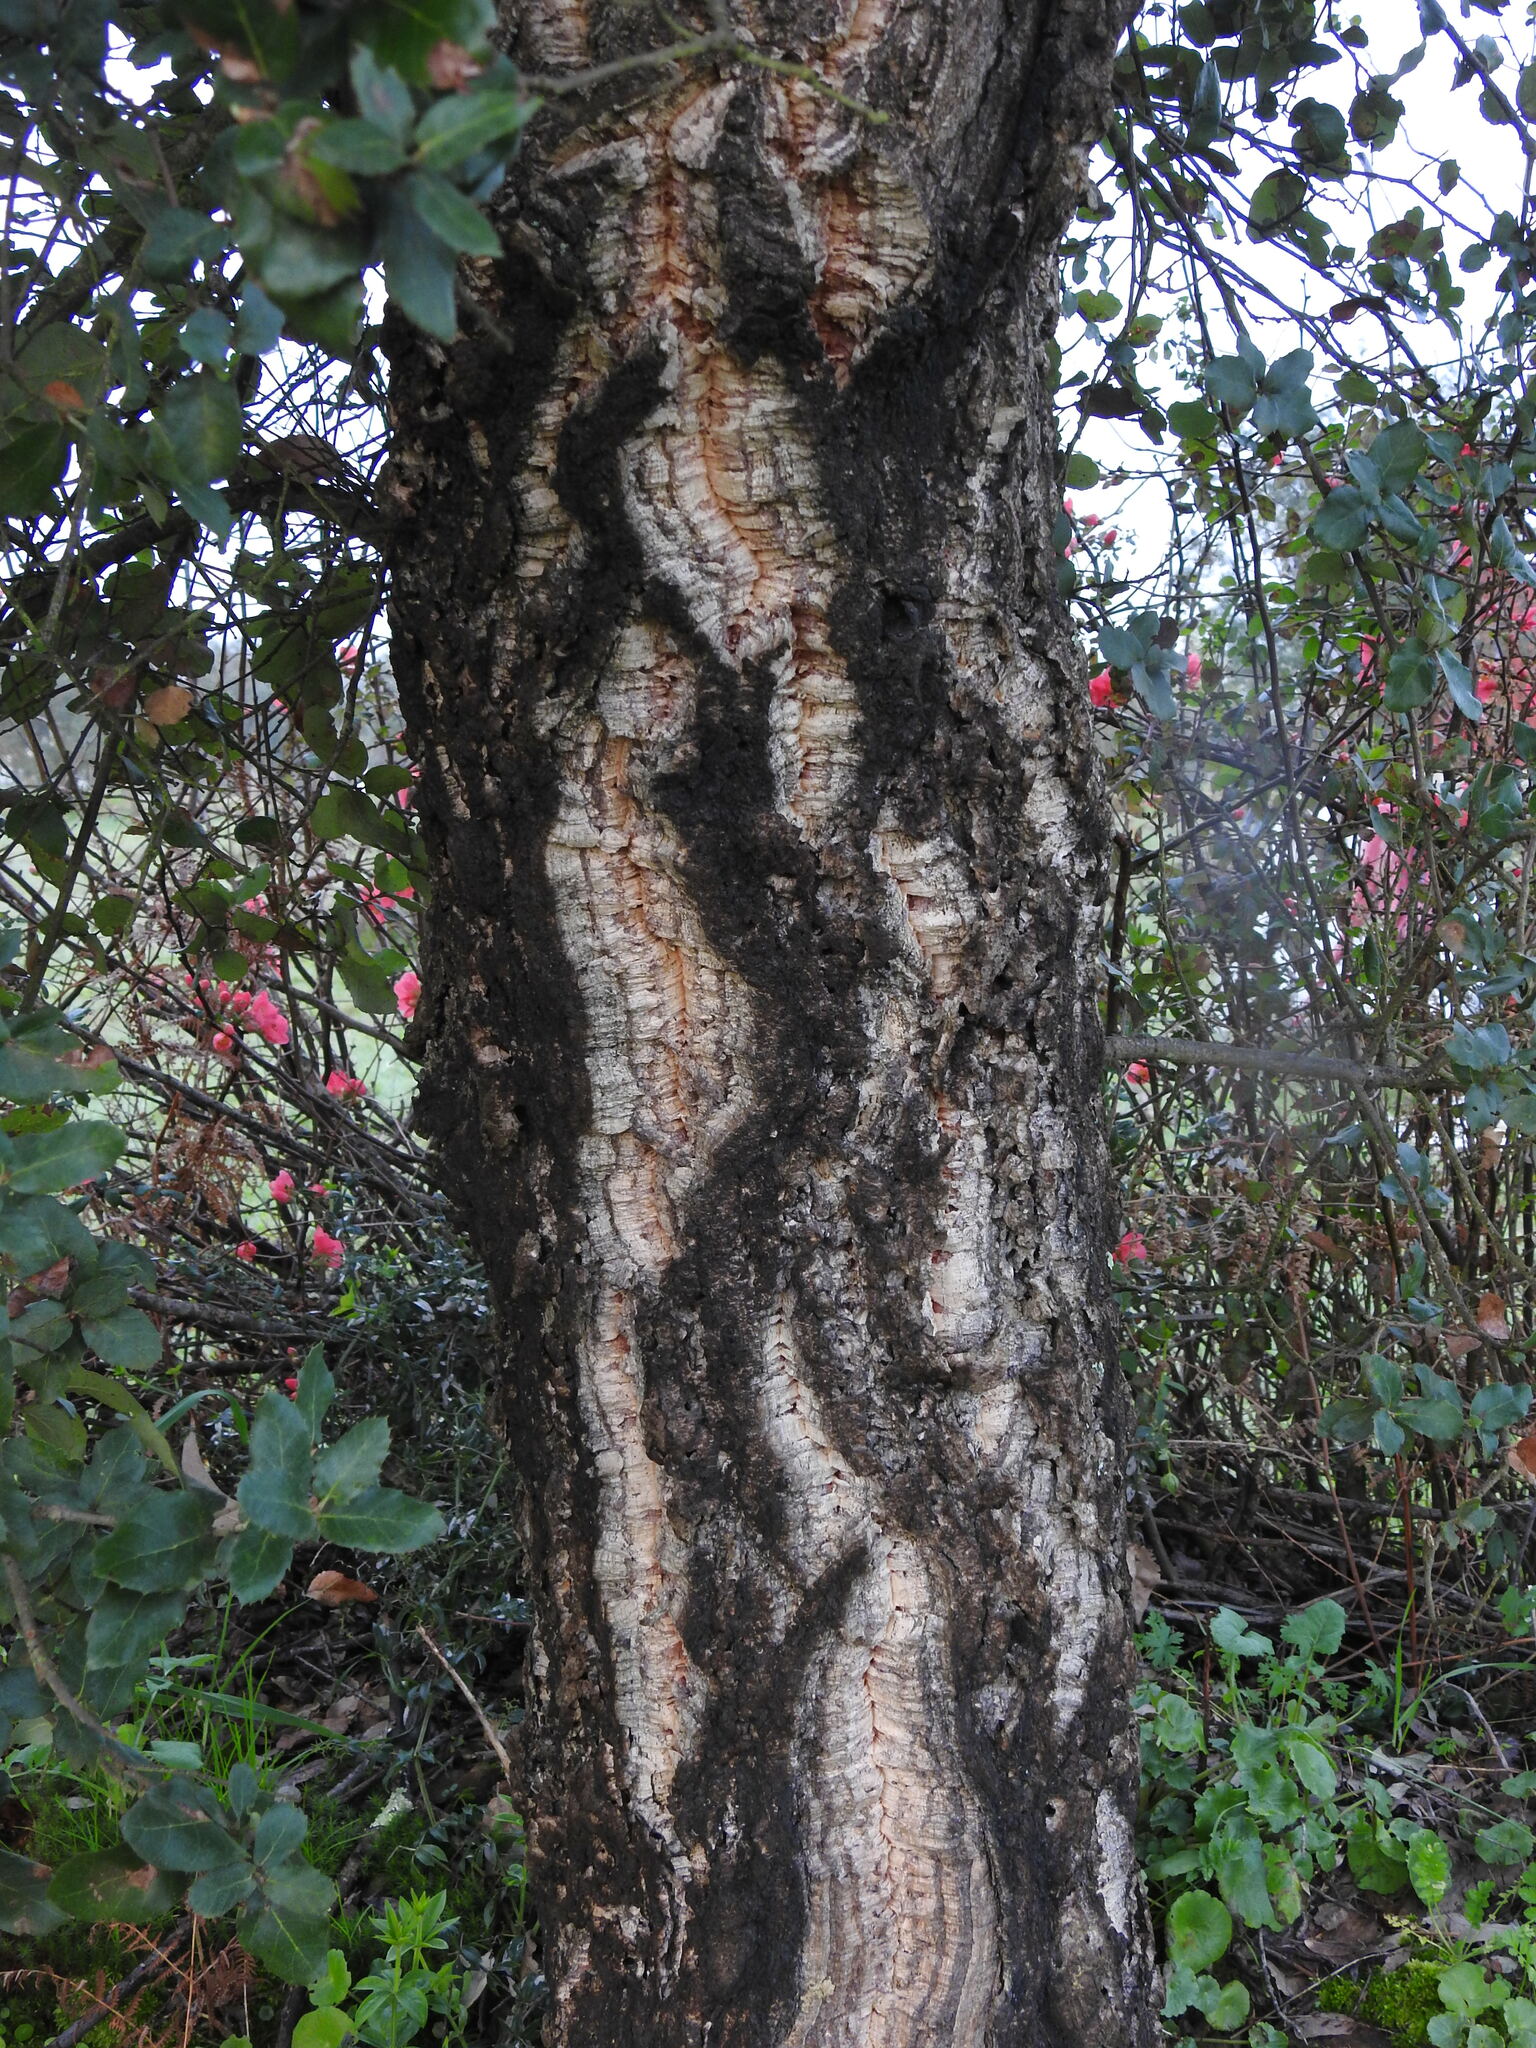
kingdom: Plantae
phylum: Tracheophyta
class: Magnoliopsida
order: Fagales
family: Fagaceae
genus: Quercus
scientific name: Quercus suber
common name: Cork oak
